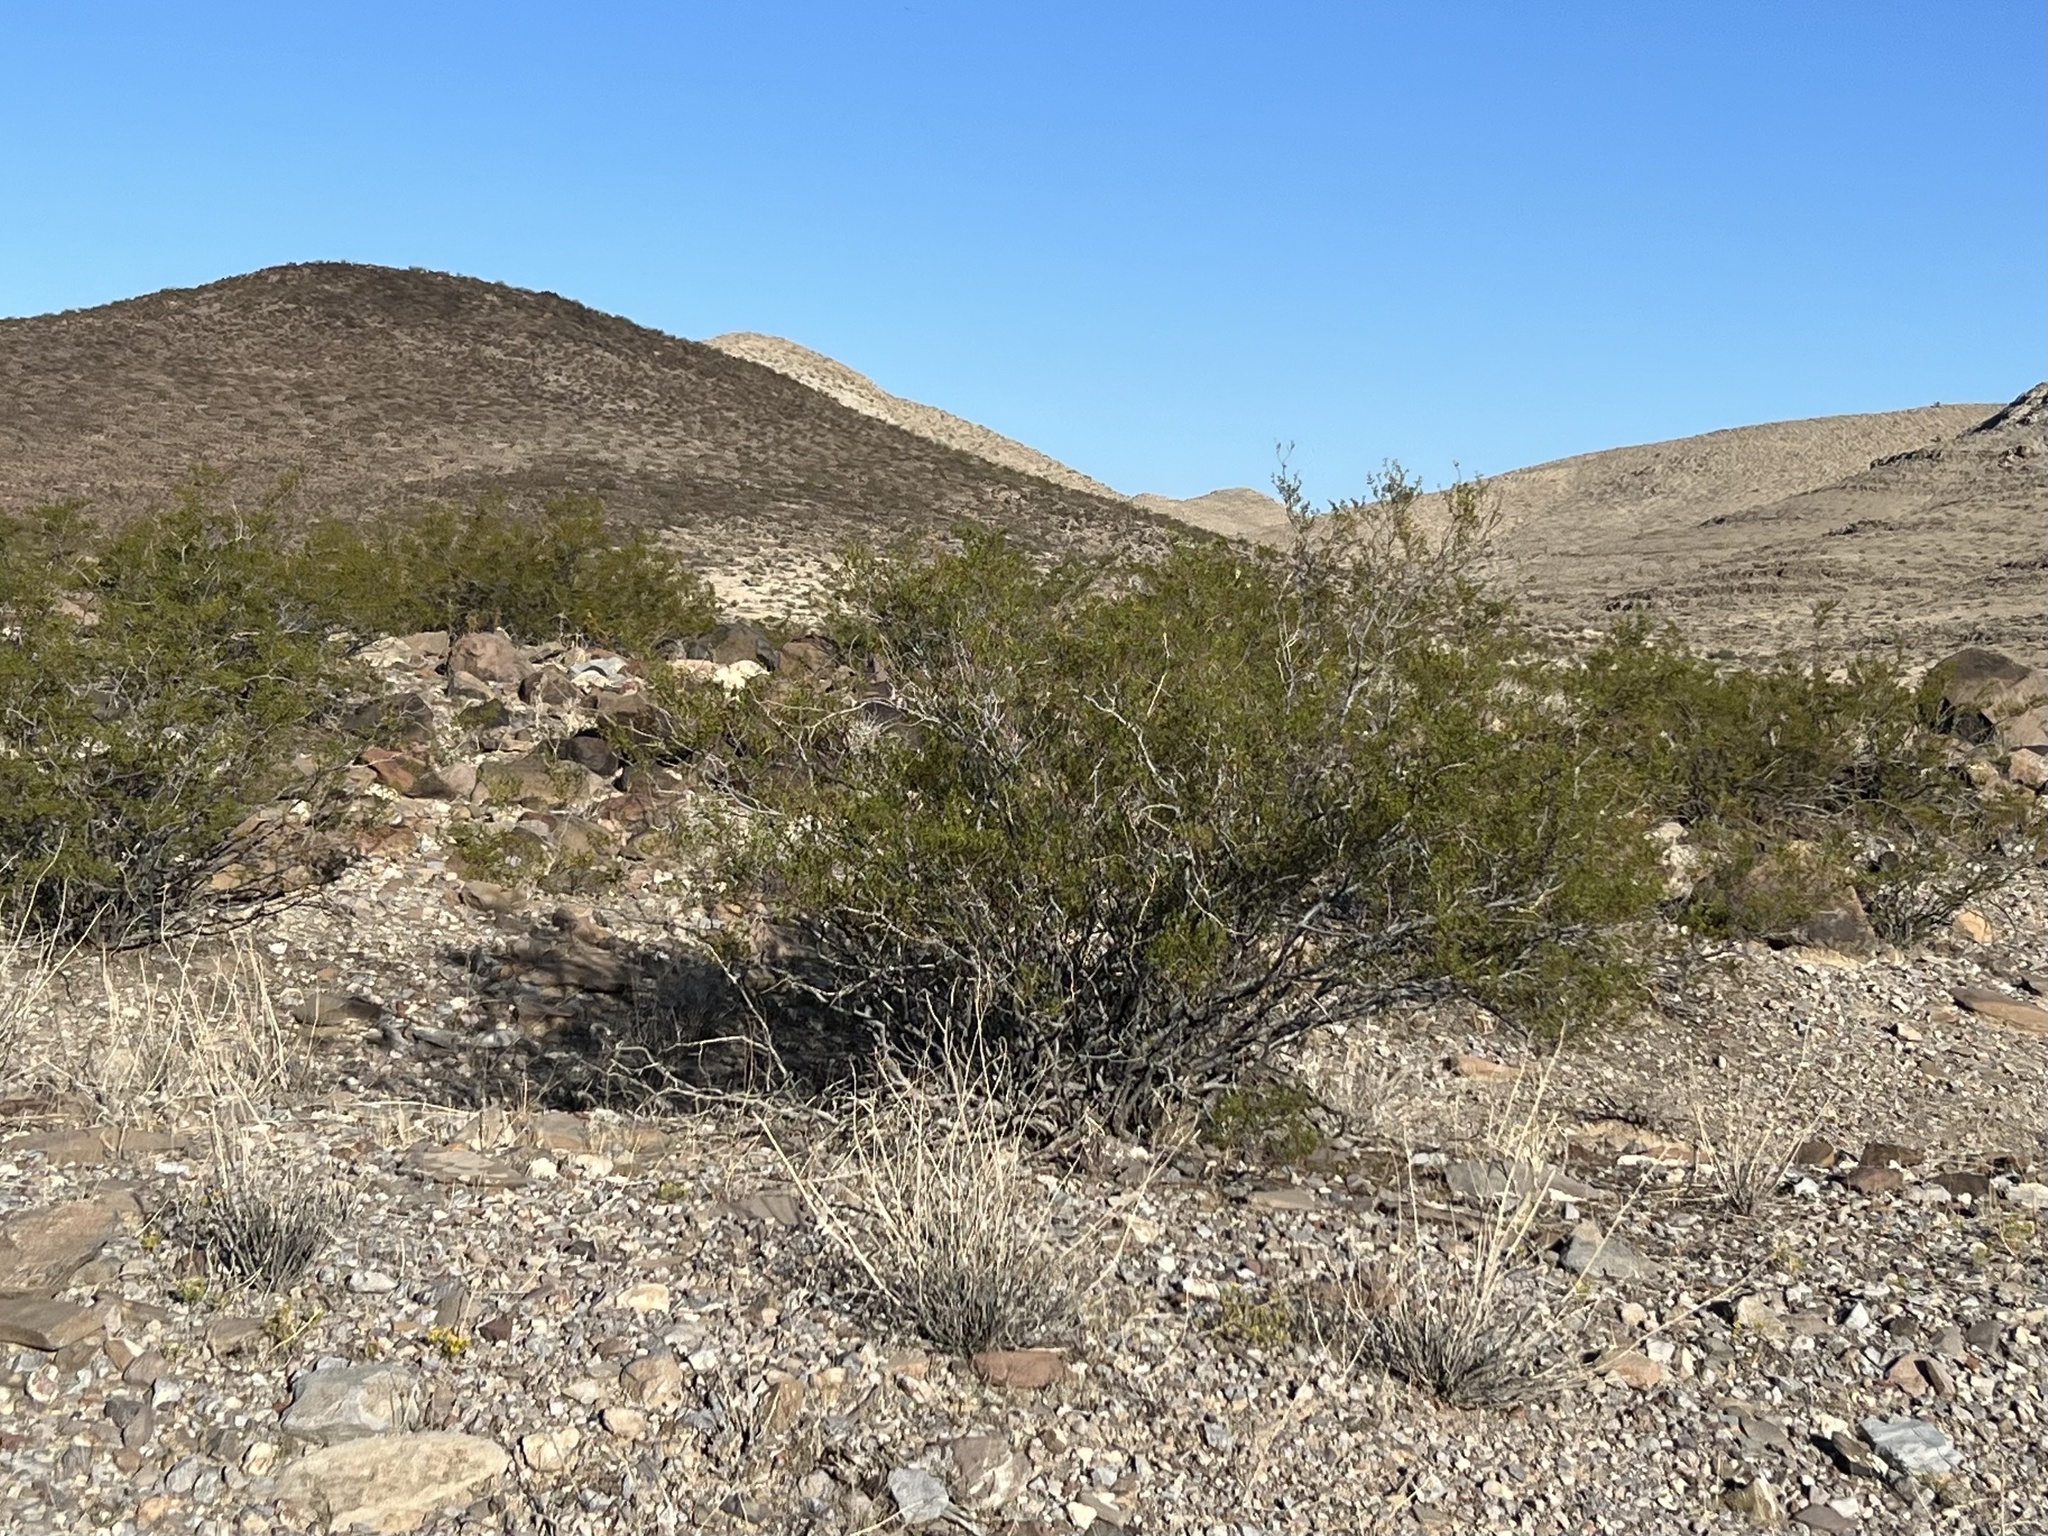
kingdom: Plantae
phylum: Tracheophyta
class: Magnoliopsida
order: Zygophyllales
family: Zygophyllaceae
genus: Larrea
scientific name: Larrea tridentata
